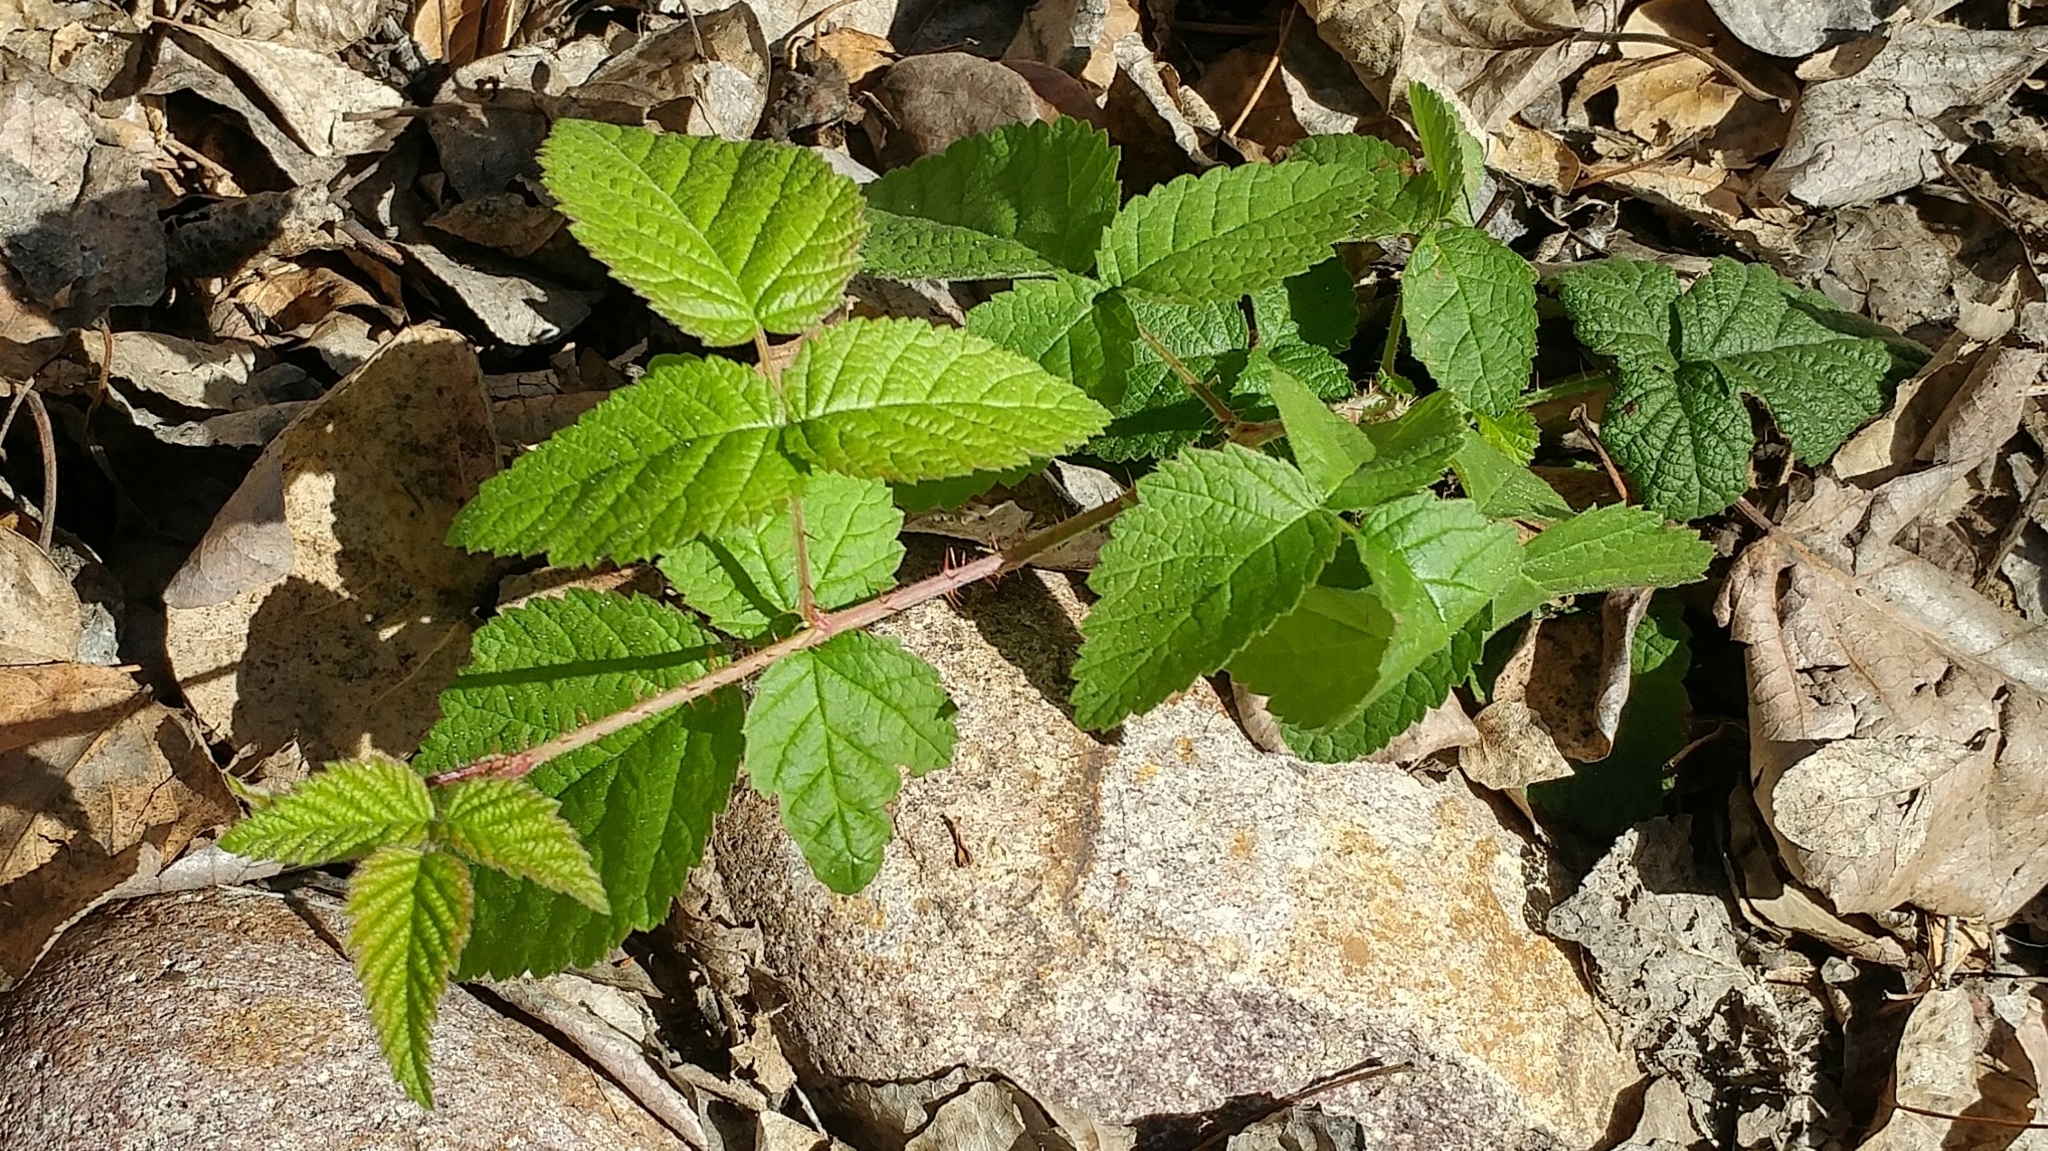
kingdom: Plantae
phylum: Tracheophyta
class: Magnoliopsida
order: Rosales
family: Rosaceae
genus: Rubus
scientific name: Rubus ursinus
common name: Pacific blackberry
